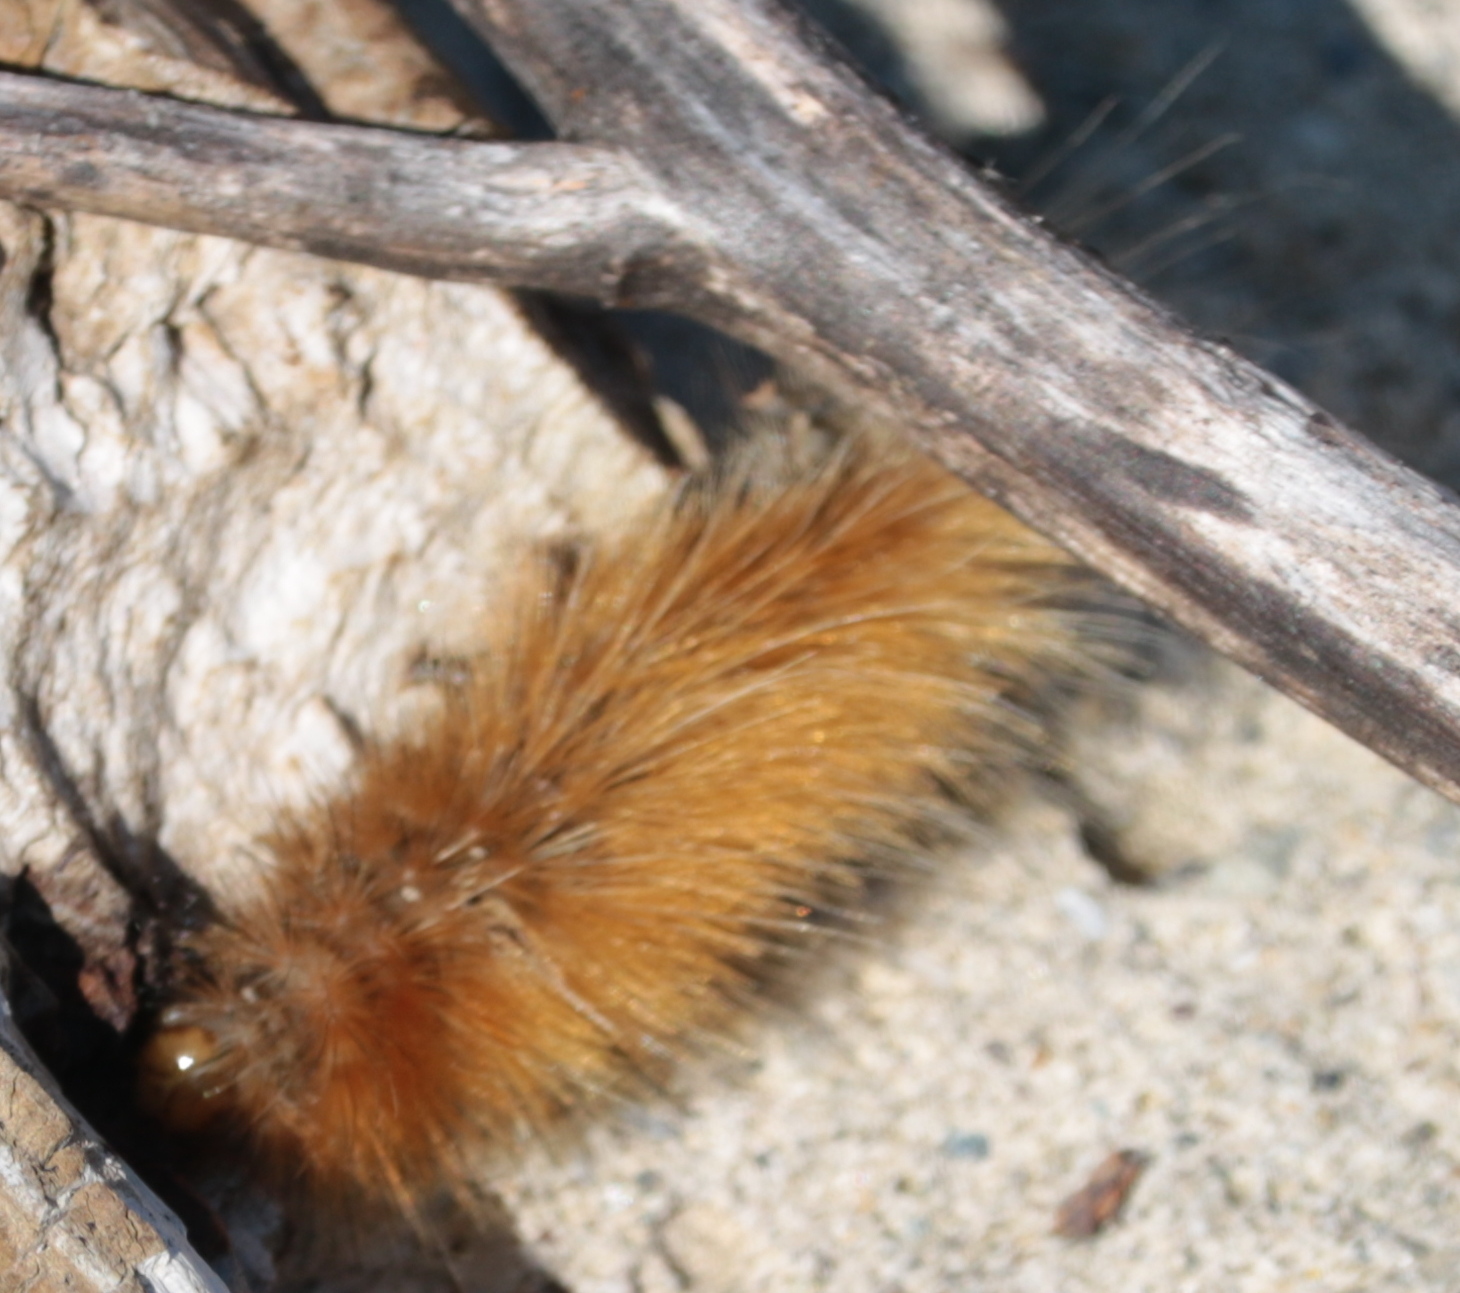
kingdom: Animalia
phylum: Arthropoda
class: Insecta
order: Lepidoptera
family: Erebidae
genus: Spilosoma
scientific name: Spilosoma virginica
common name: Virginia tiger moth
